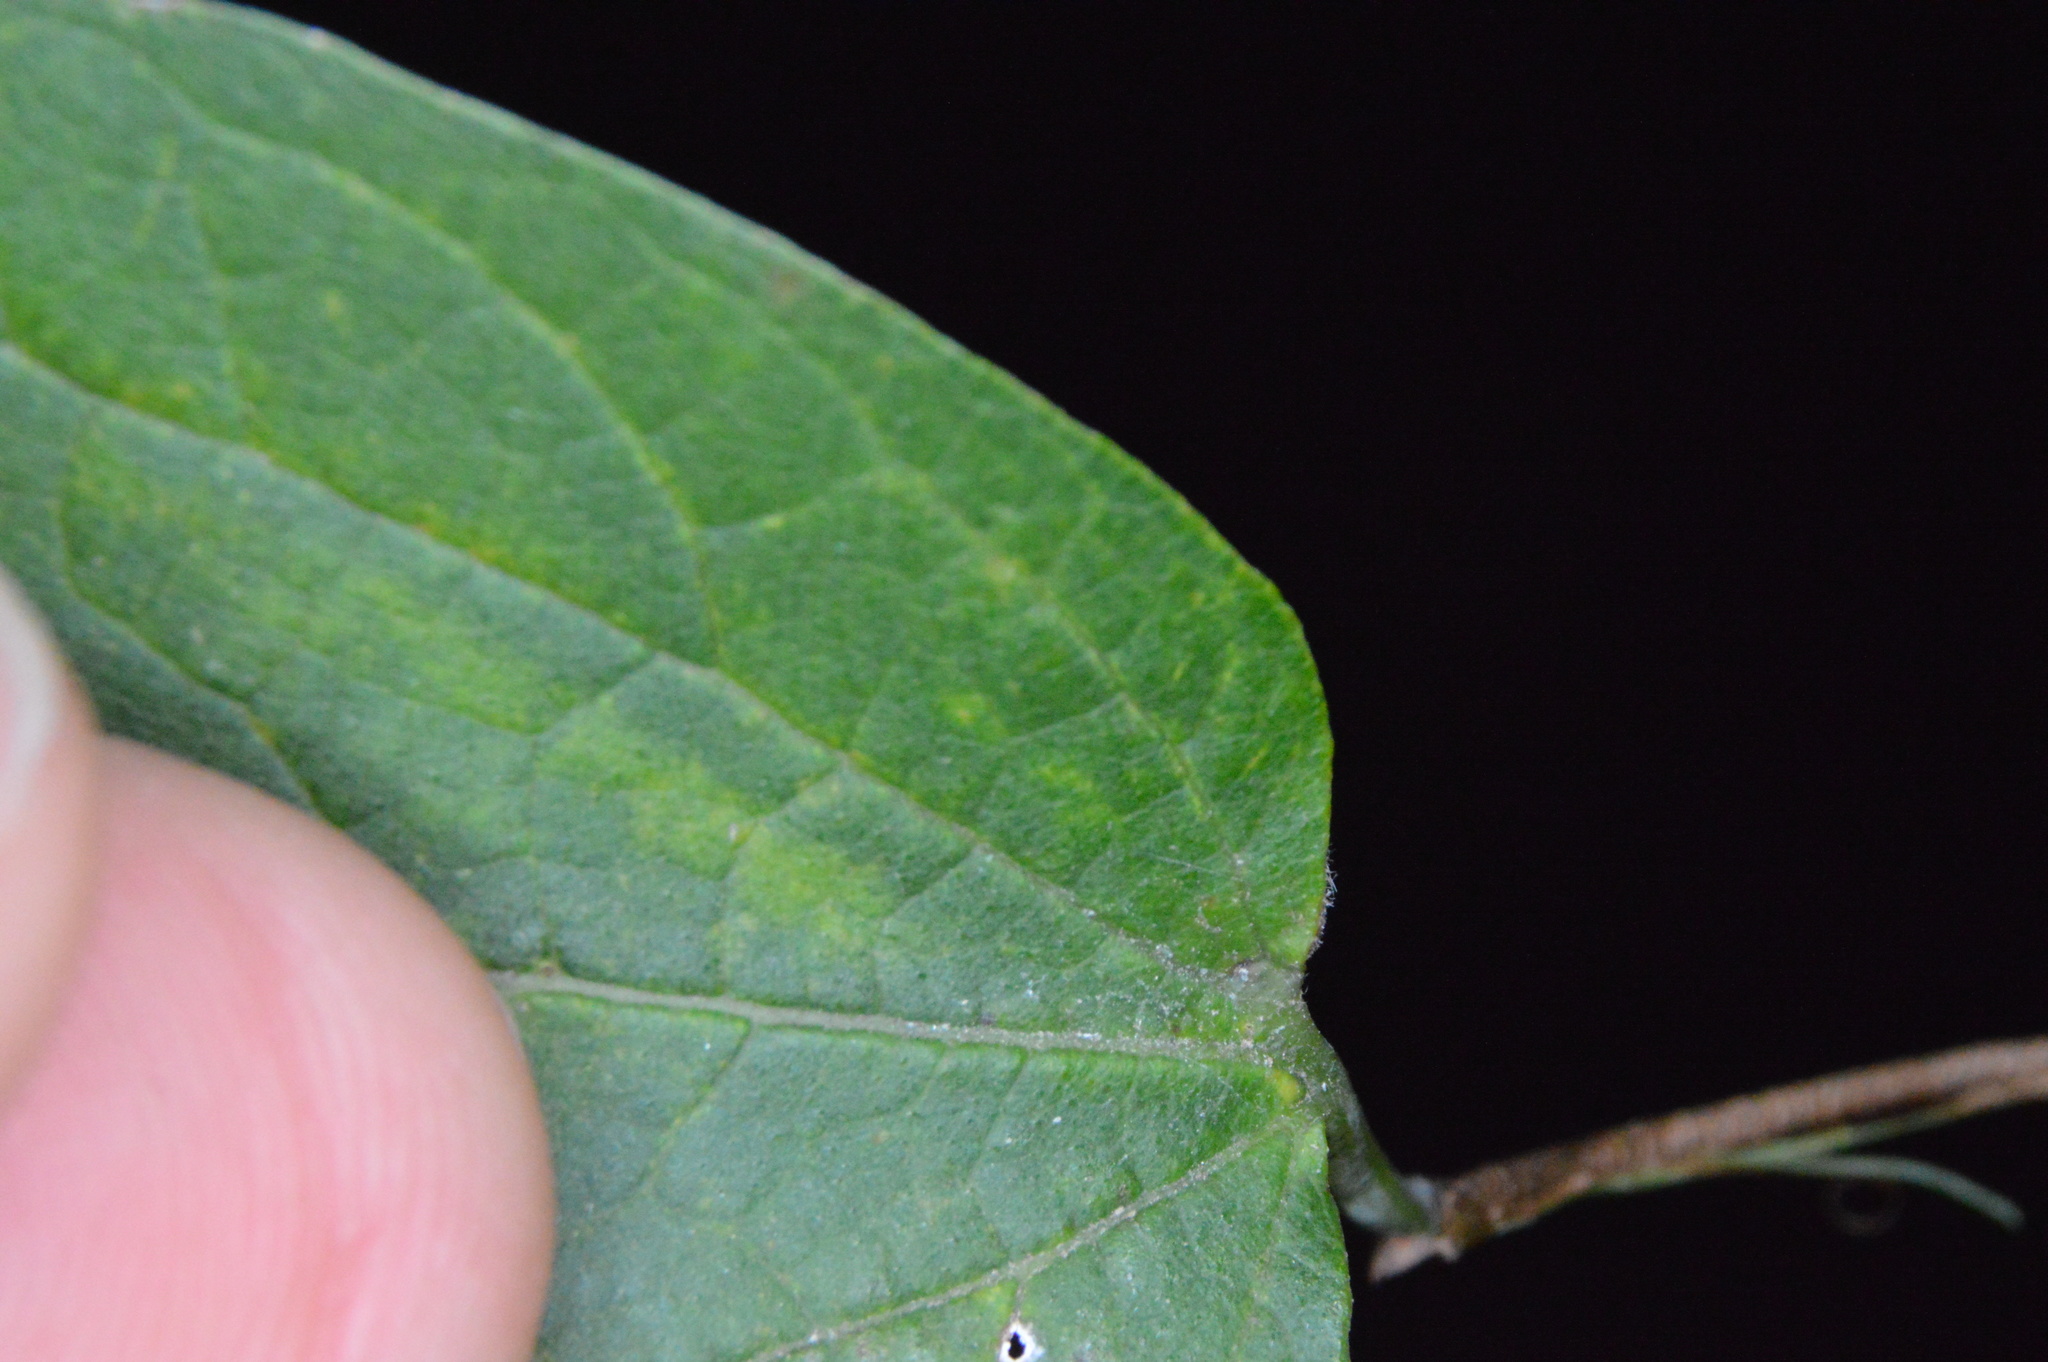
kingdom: Animalia
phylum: Arthropoda
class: Insecta
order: Diptera
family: Cecidomyiidae
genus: Celticecis
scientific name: Celticecis pubescens
